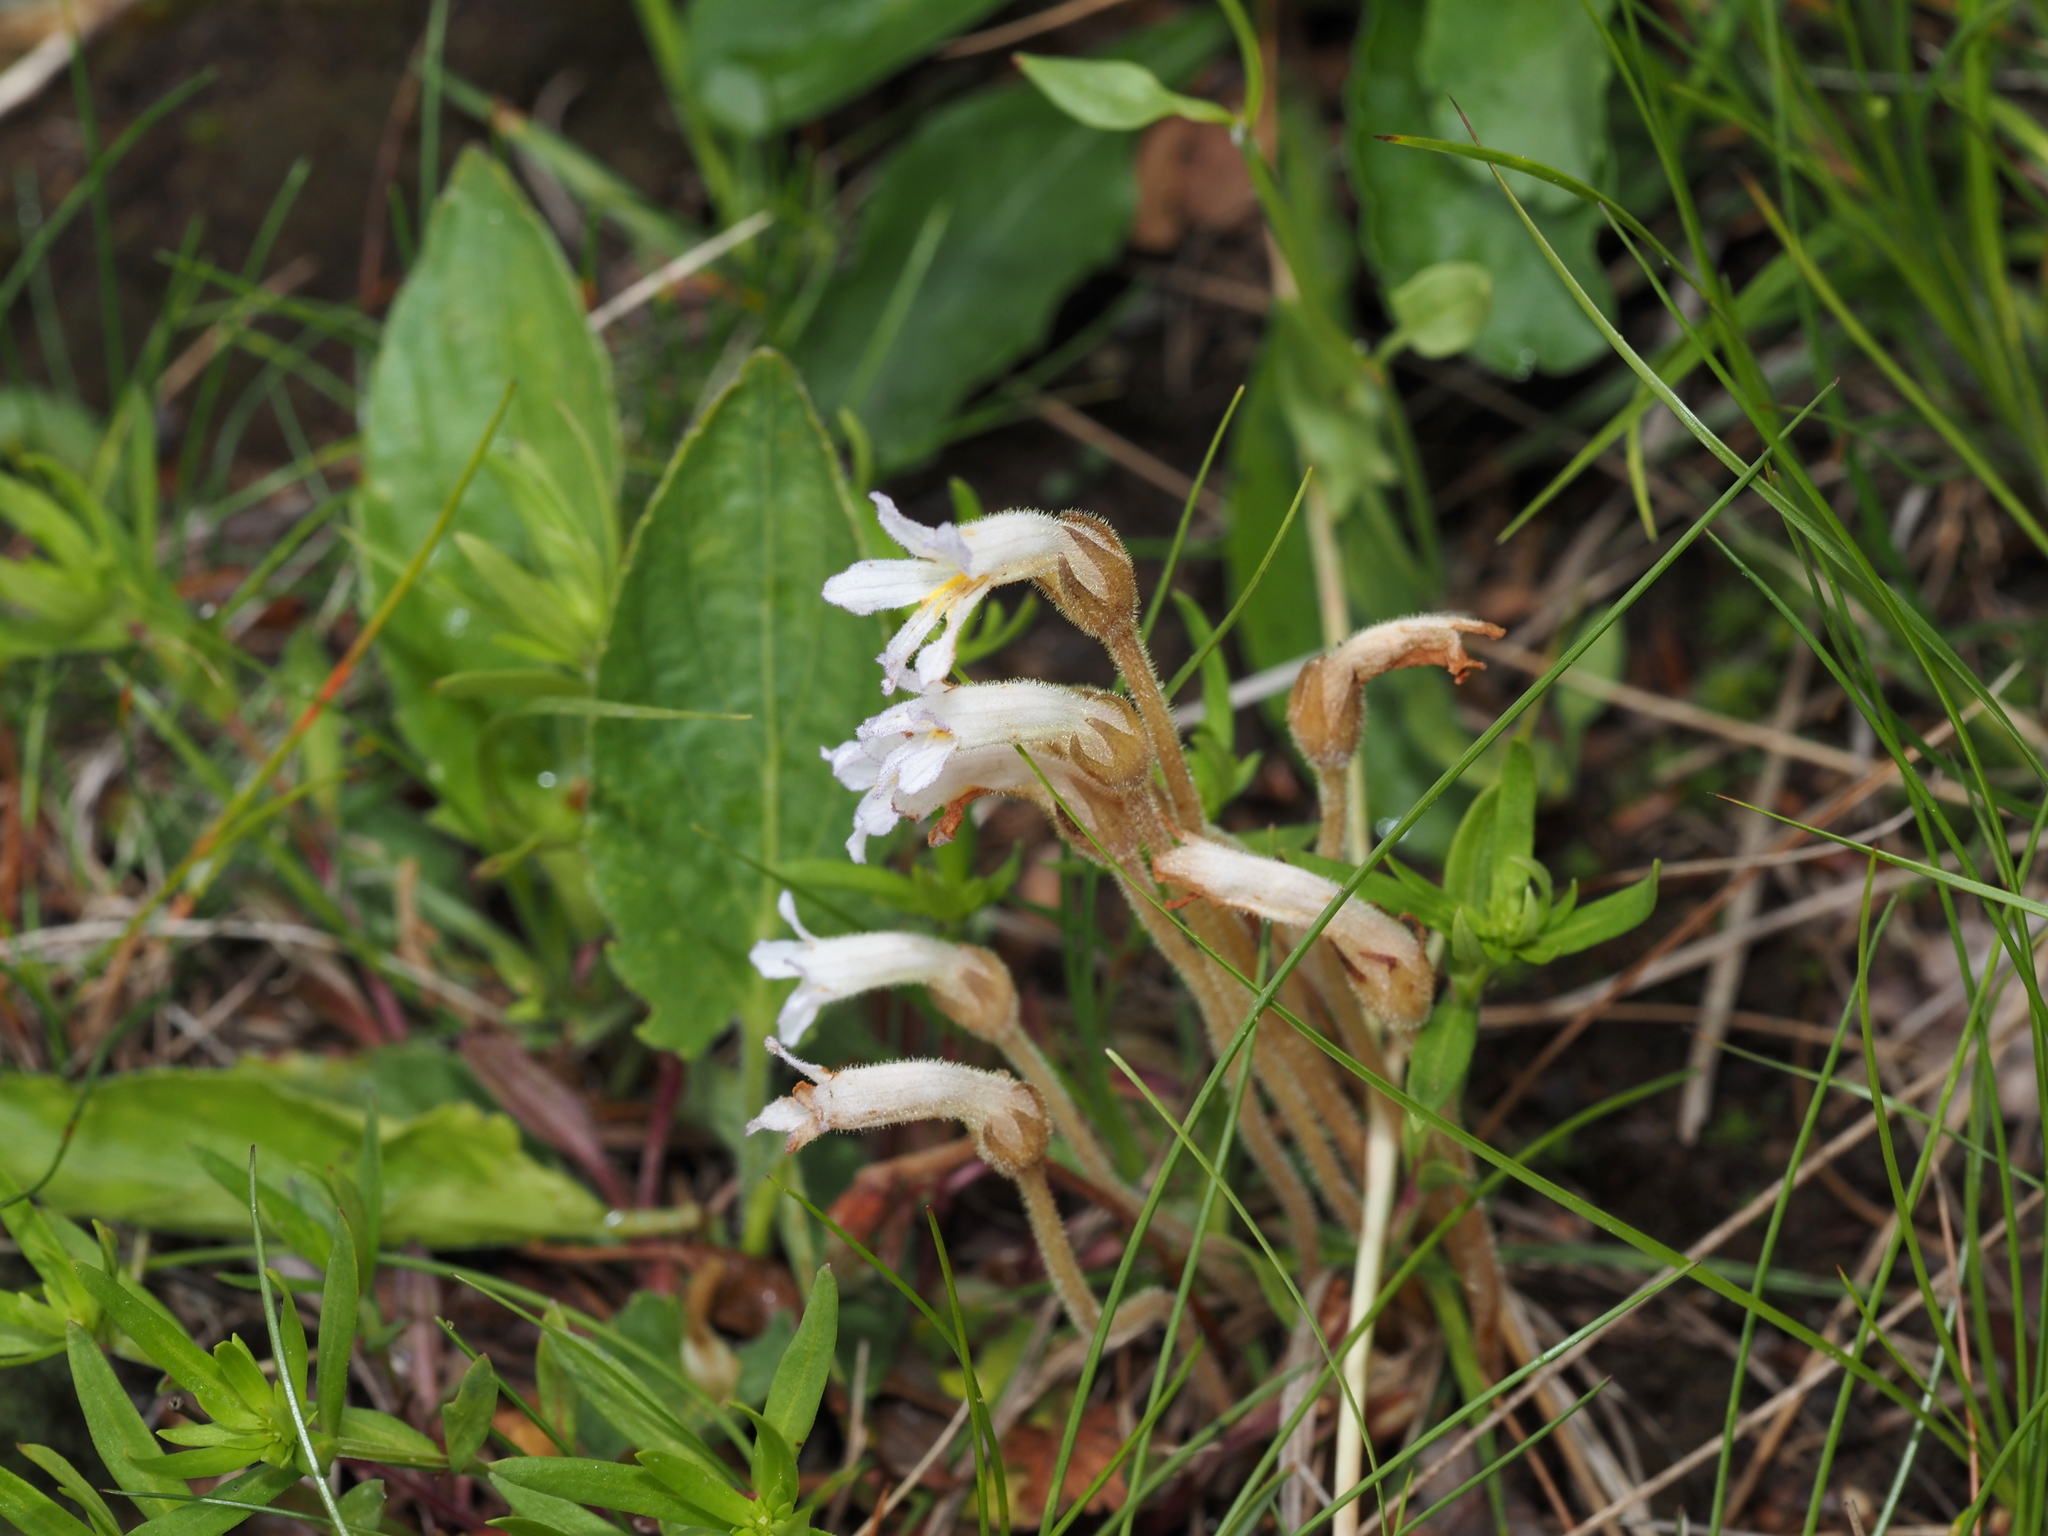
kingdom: Plantae
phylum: Tracheophyta
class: Magnoliopsida
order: Lamiales
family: Orobanchaceae
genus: Aphyllon
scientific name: Aphyllon uniflorum
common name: One-flowered broomrape
